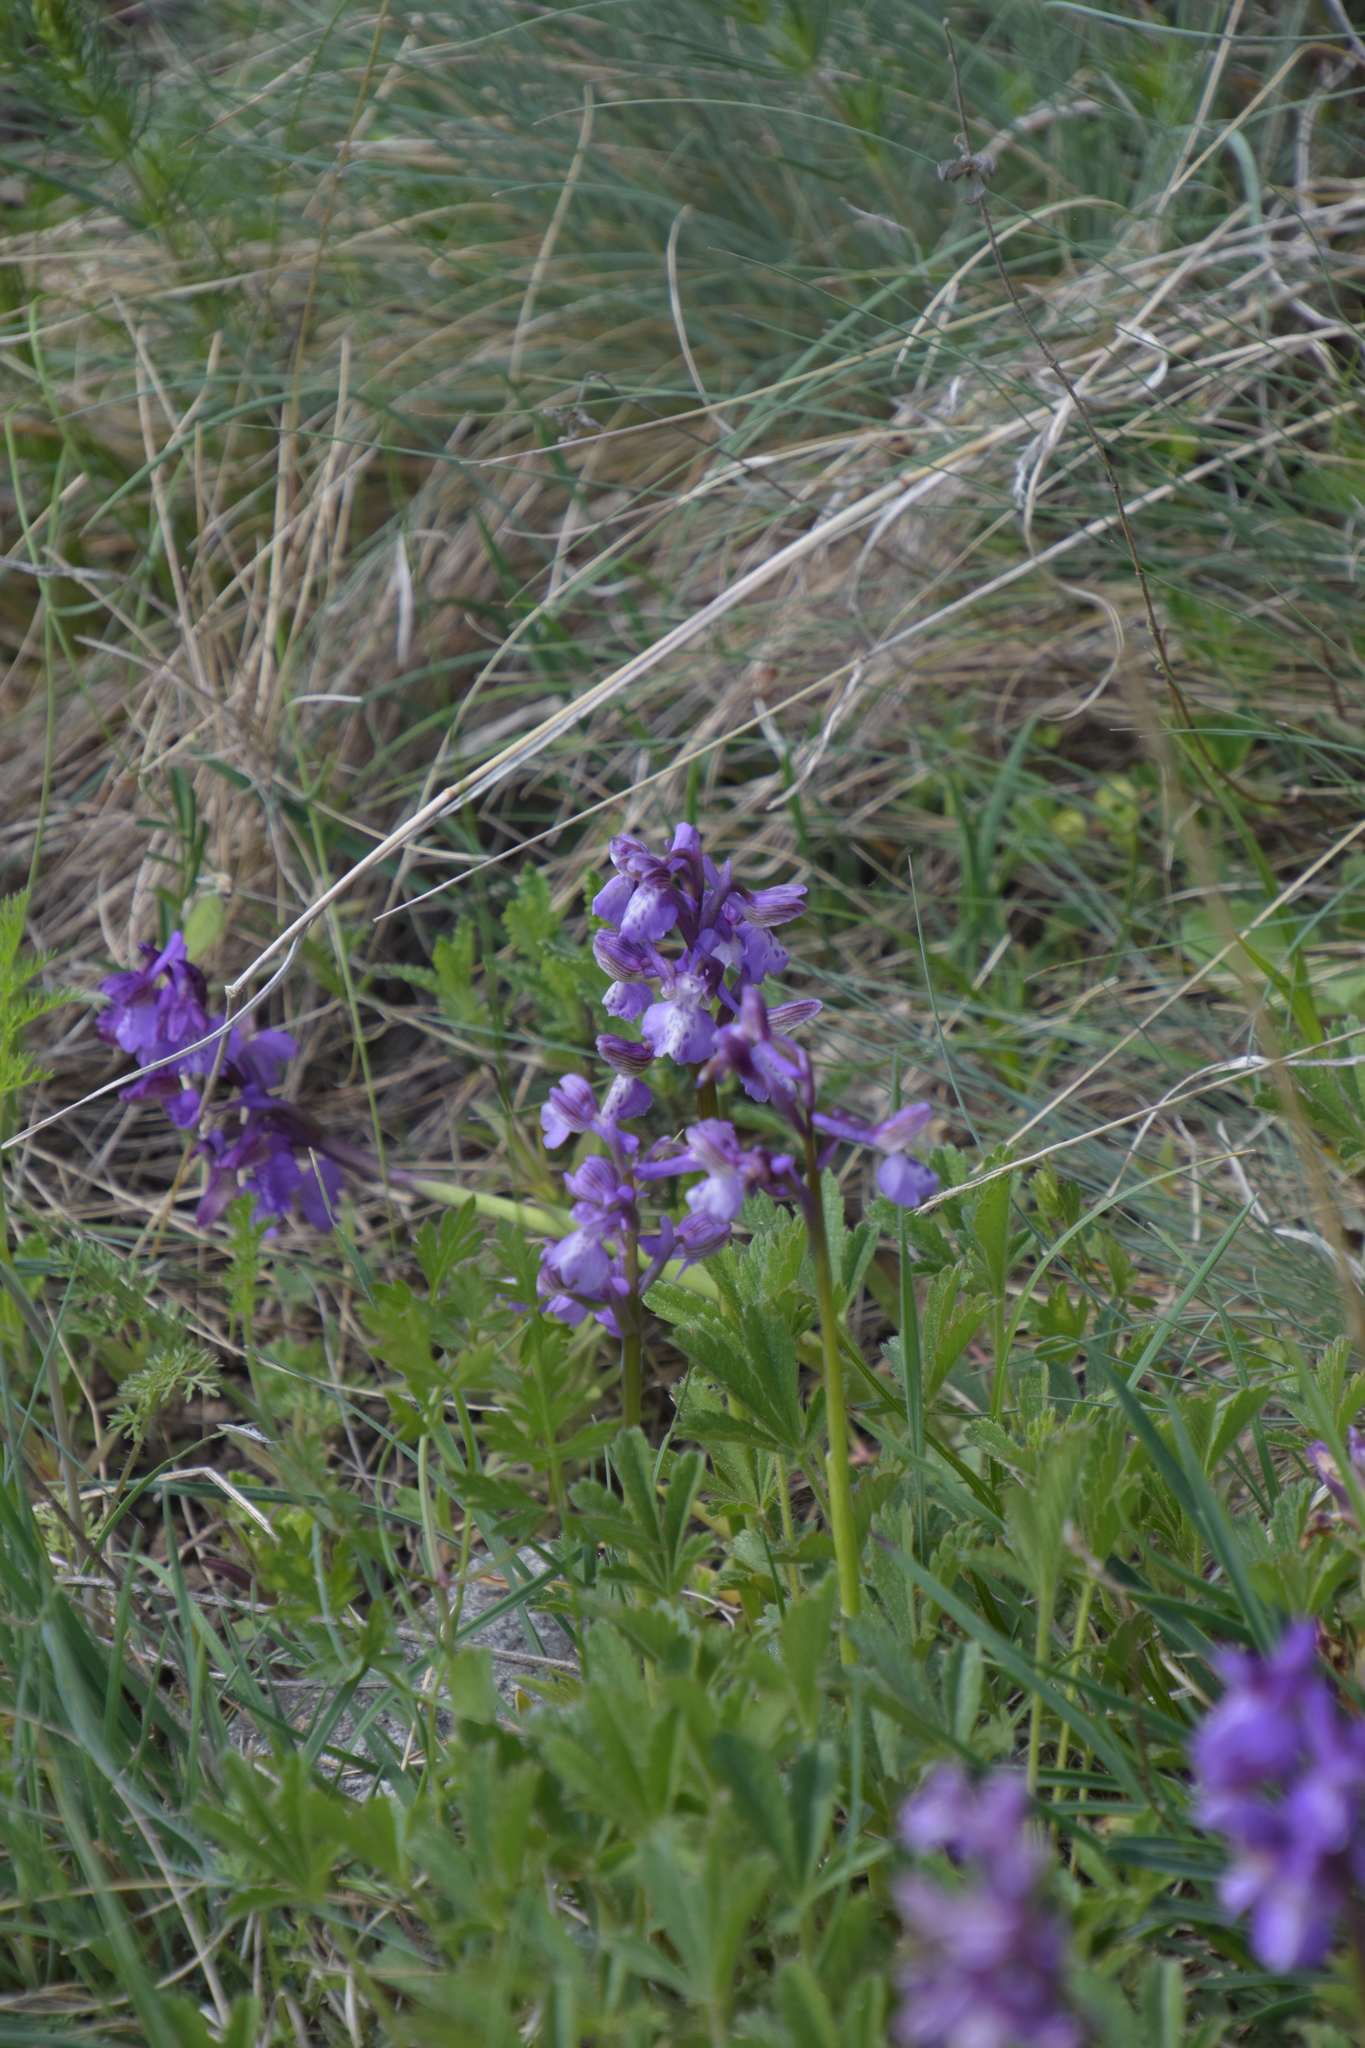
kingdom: Plantae
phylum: Tracheophyta
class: Liliopsida
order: Asparagales
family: Orchidaceae
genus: Anacamptis
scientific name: Anacamptis morio
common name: Green-winged orchid
